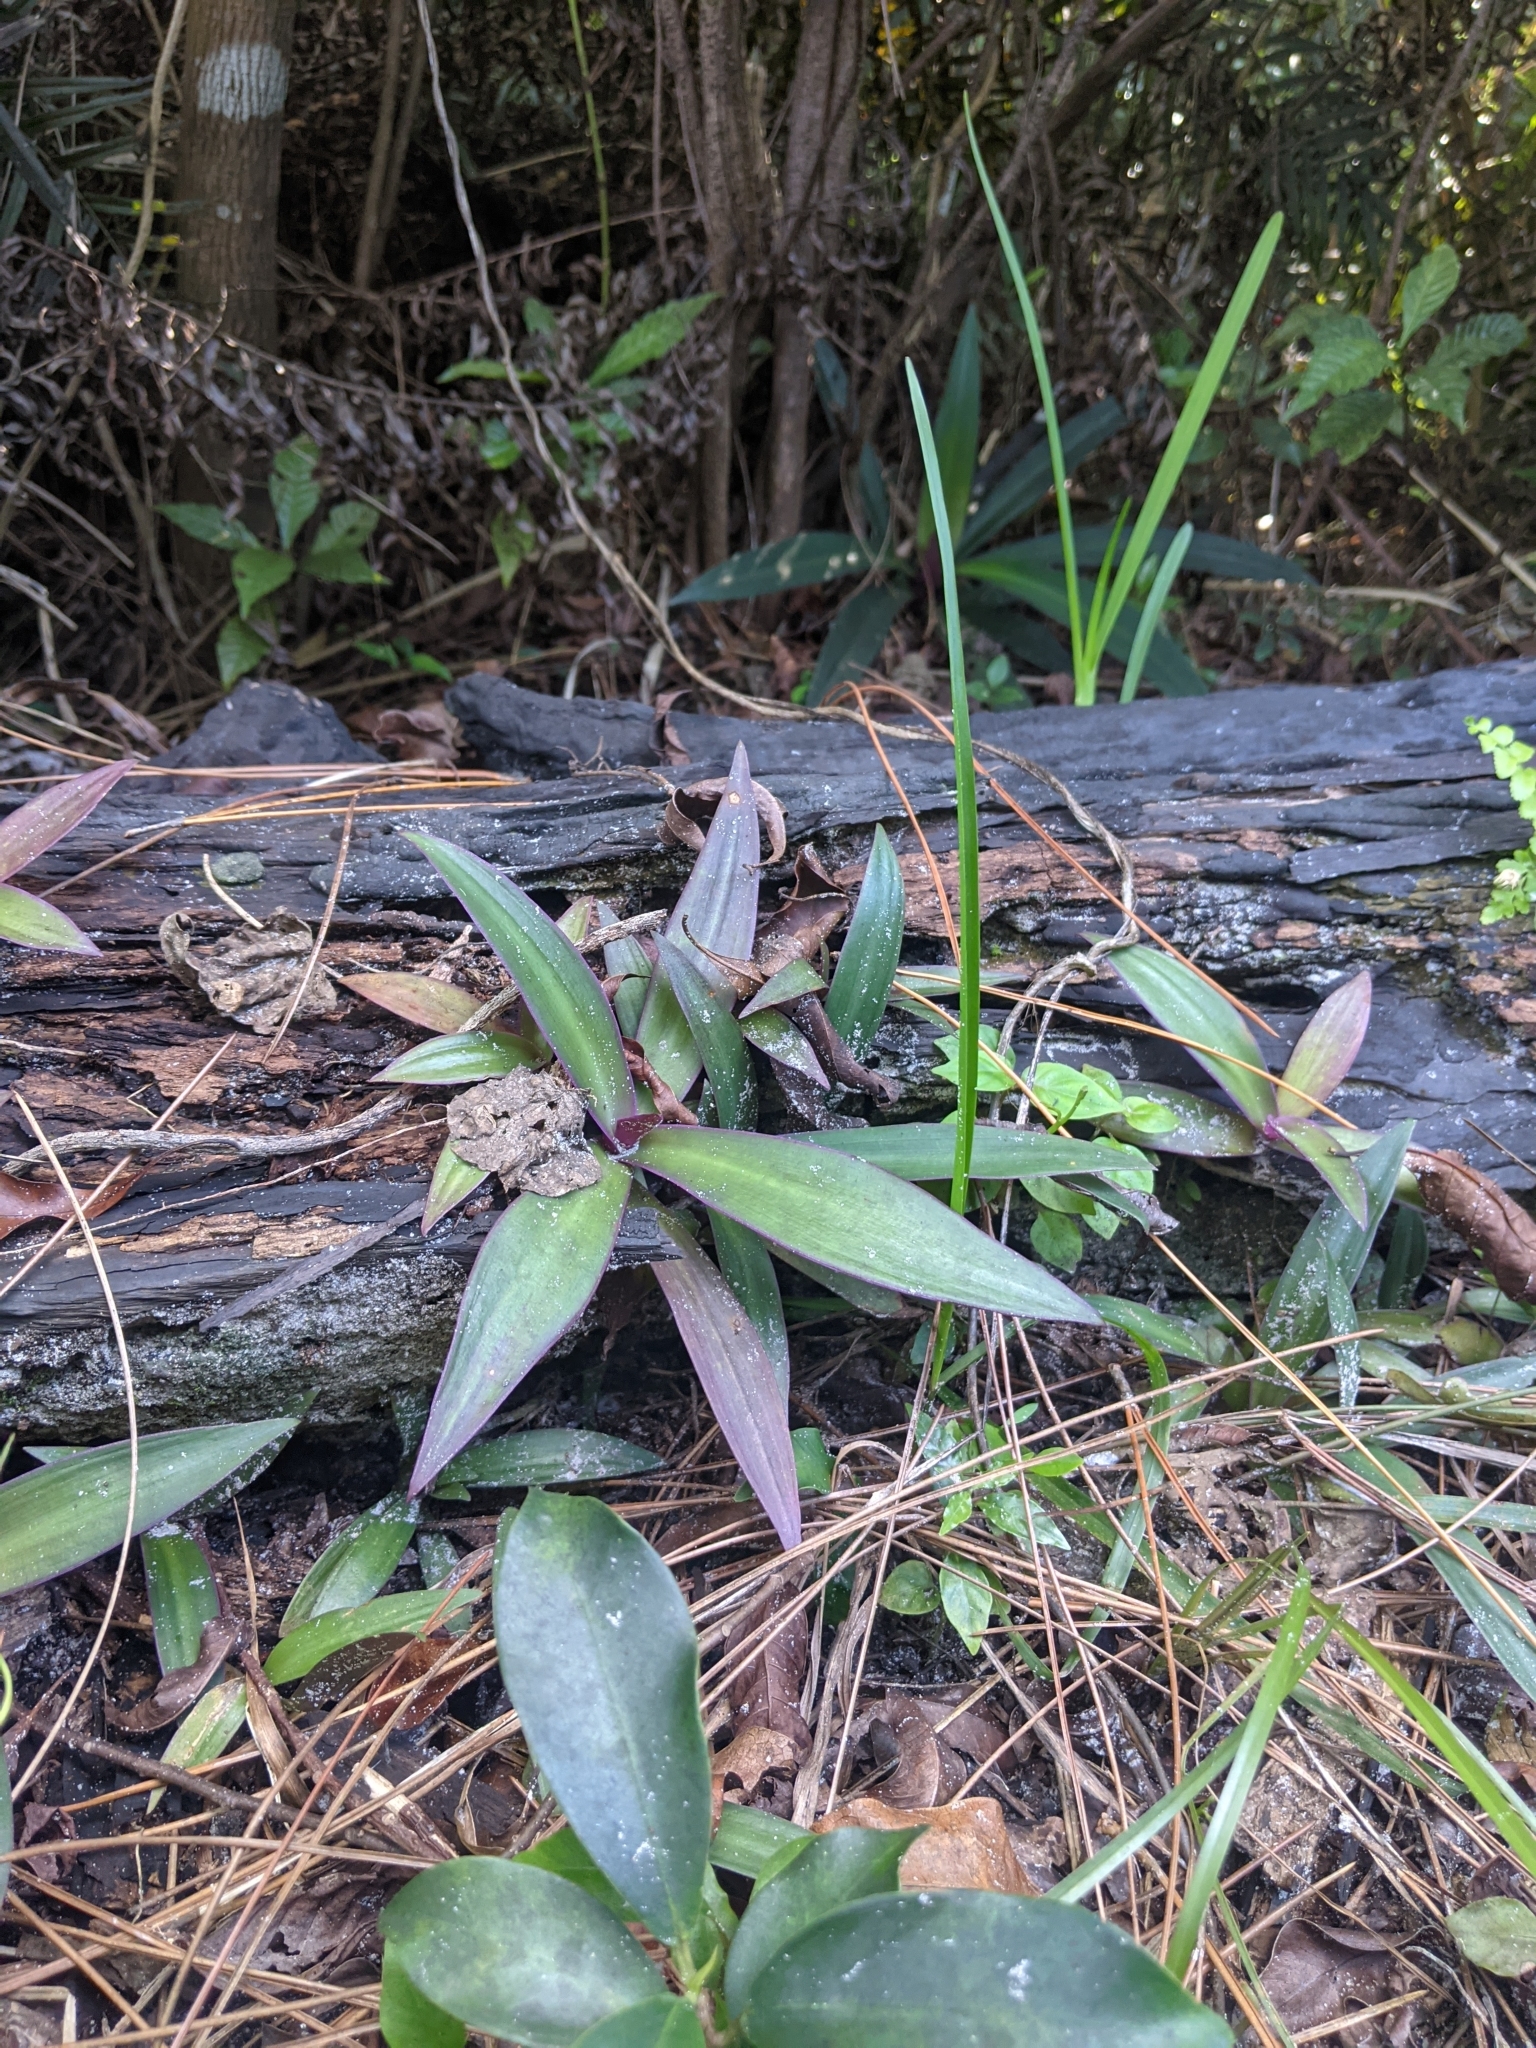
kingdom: Plantae
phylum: Tracheophyta
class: Liliopsida
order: Commelinales
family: Commelinaceae
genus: Tradescantia
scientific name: Tradescantia spathacea
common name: Boatlily
